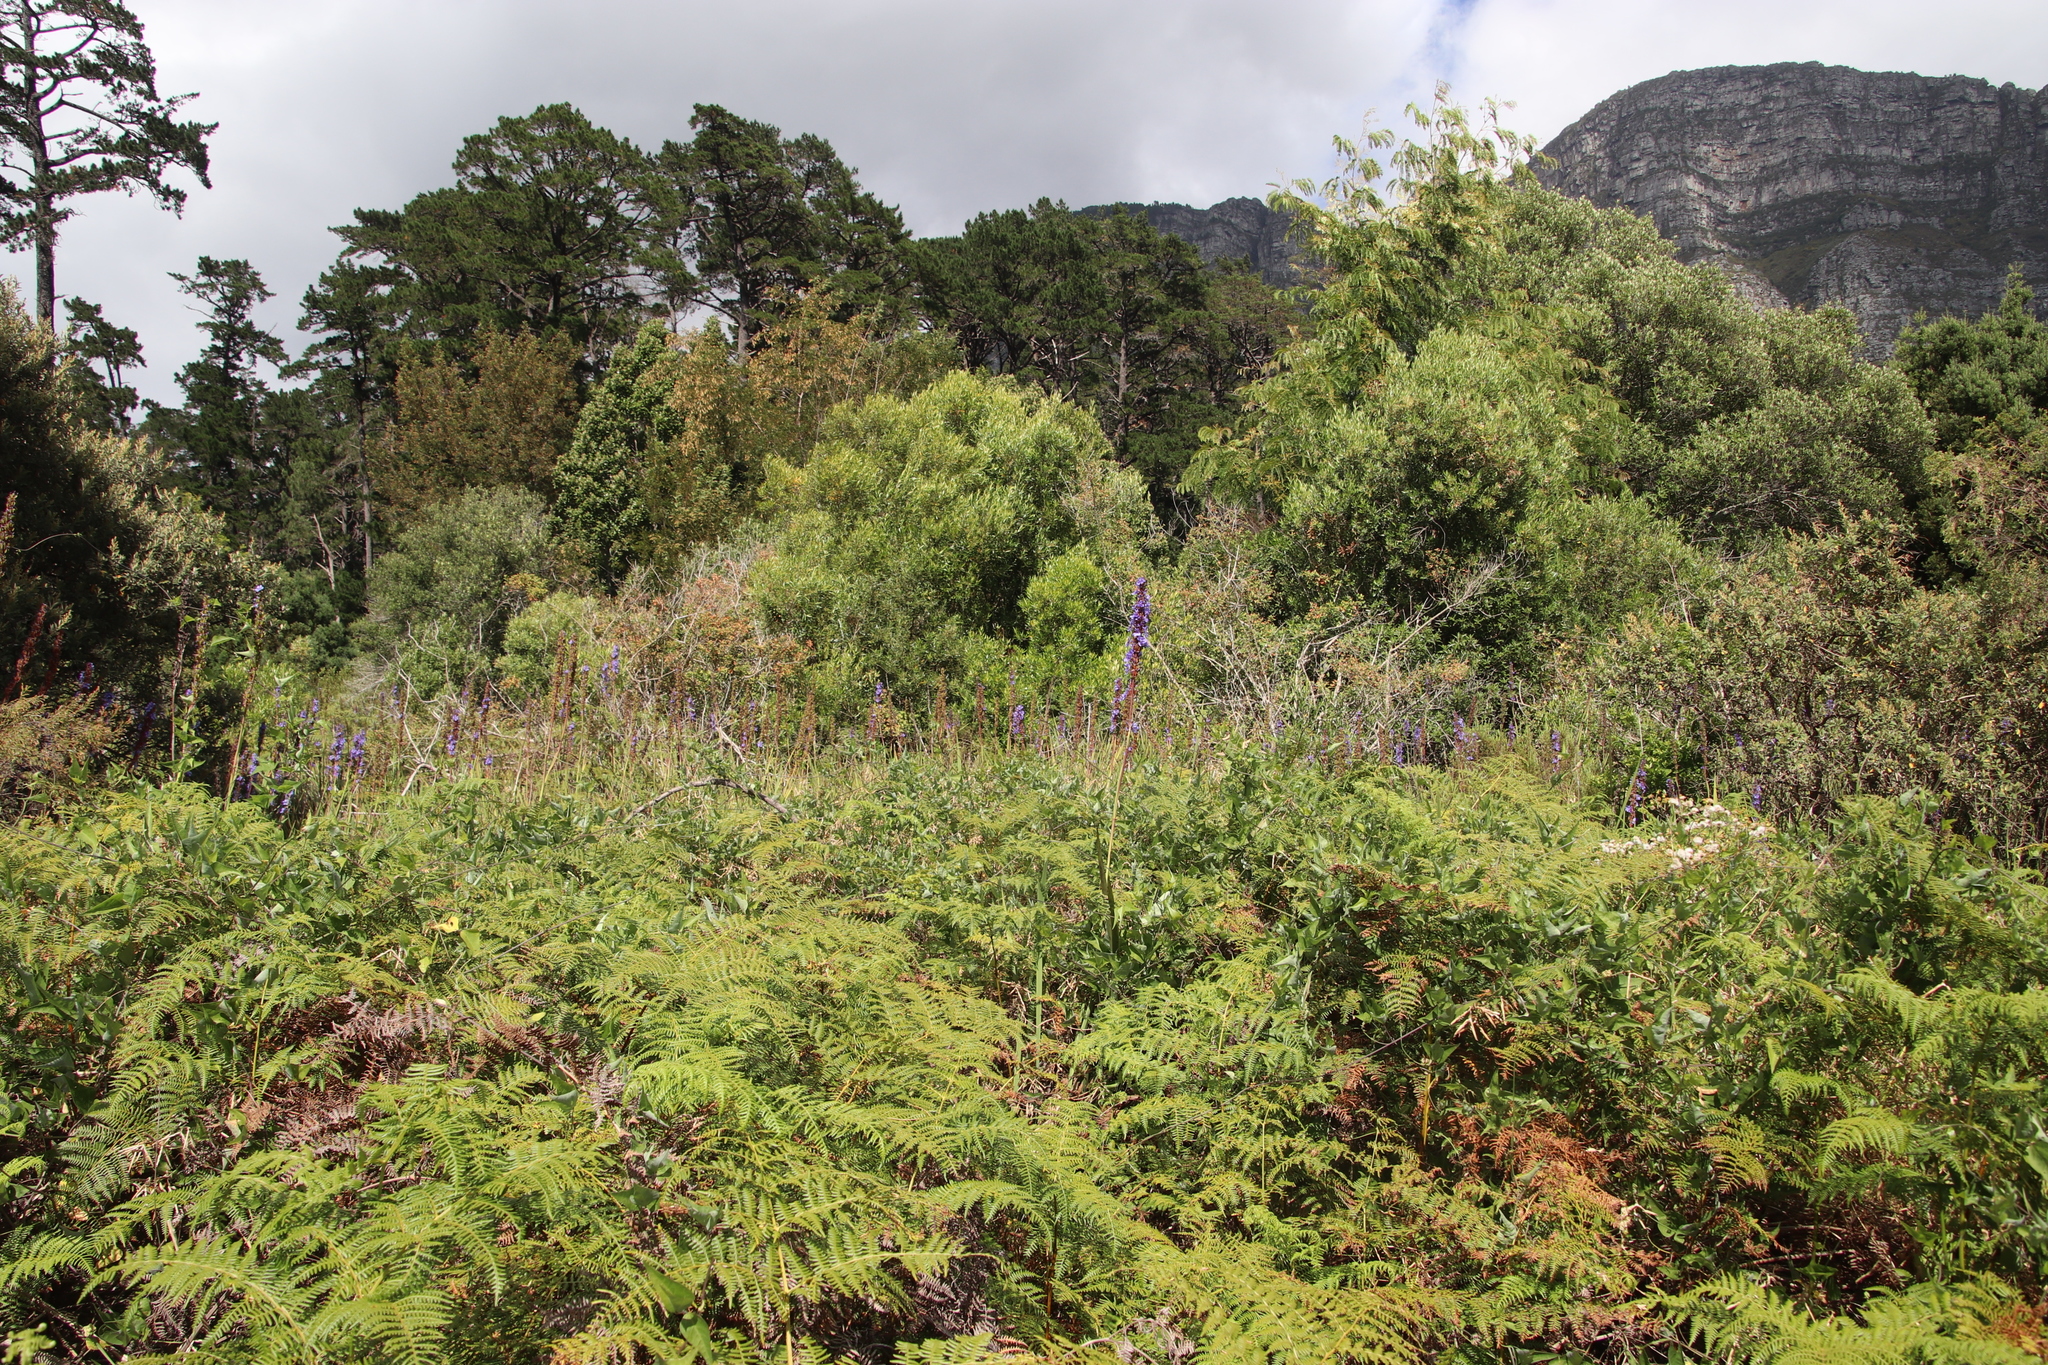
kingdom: Plantae
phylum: Tracheophyta
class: Polypodiopsida
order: Polypodiales
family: Dennstaedtiaceae
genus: Pteridium
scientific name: Pteridium aquilinum
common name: Bracken
